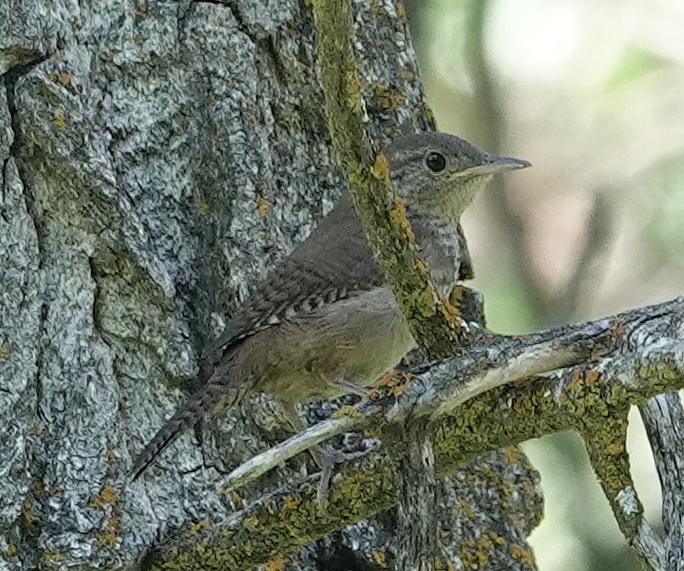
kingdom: Animalia
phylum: Chordata
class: Aves
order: Passeriformes
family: Troglodytidae
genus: Troglodytes
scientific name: Troglodytes aedon
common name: House wren
